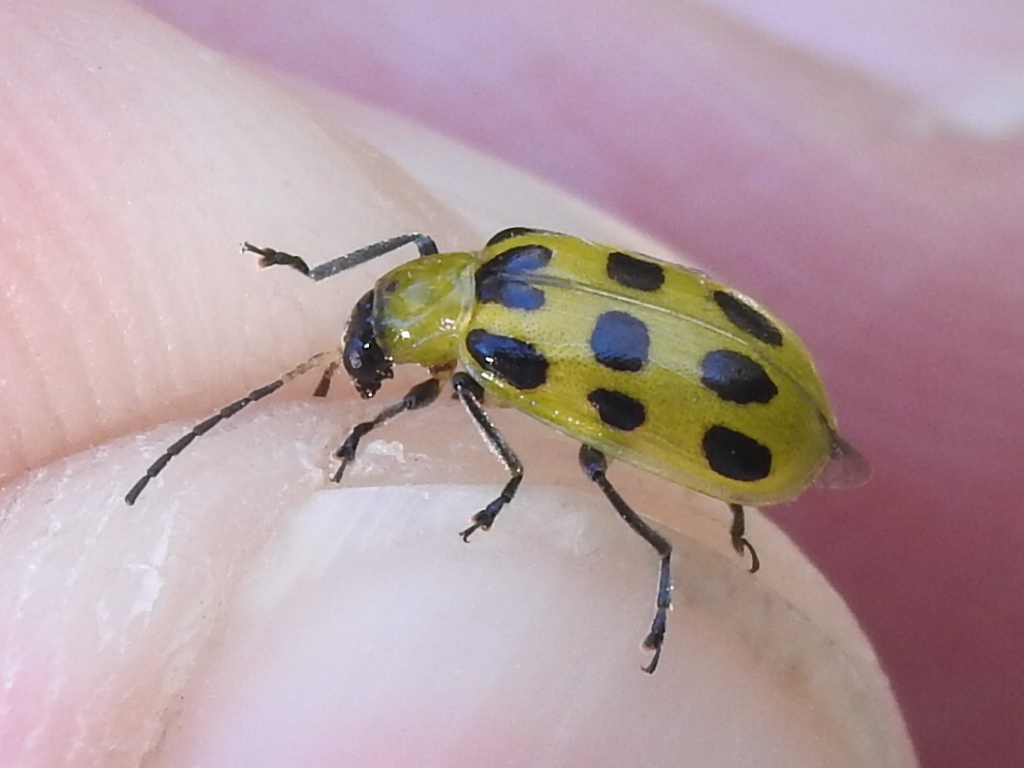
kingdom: Animalia
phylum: Arthropoda
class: Insecta
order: Coleoptera
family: Chrysomelidae
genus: Diabrotica
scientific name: Diabrotica undecimpunctata
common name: Spotted cucumber beetle
